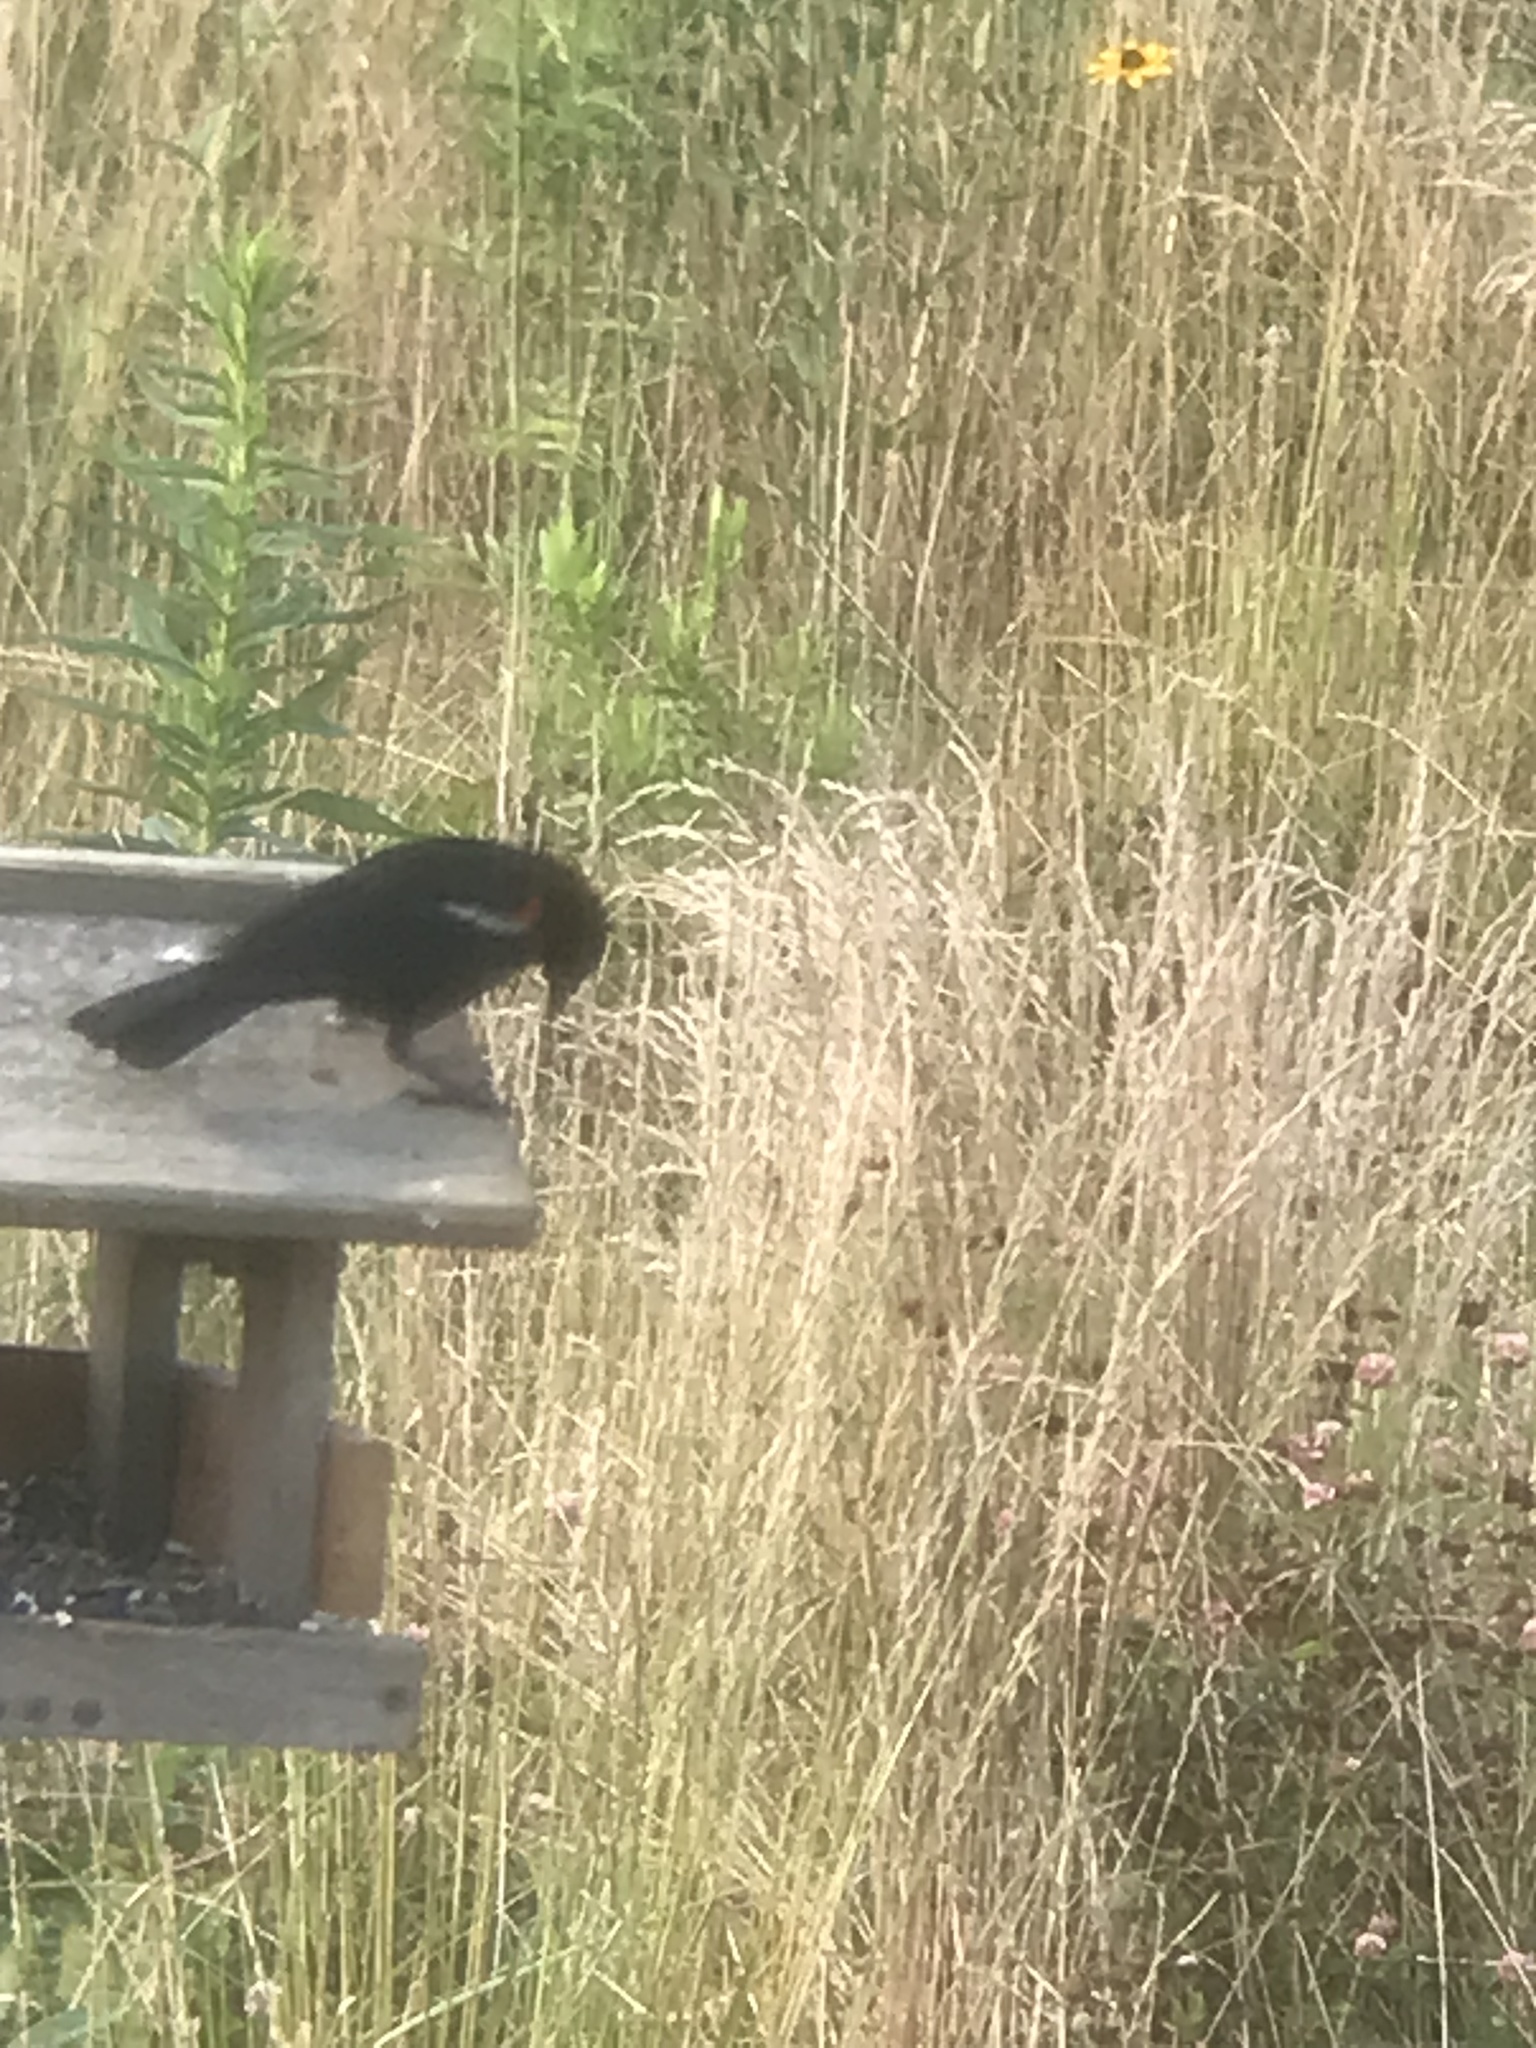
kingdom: Animalia
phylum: Chordata
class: Aves
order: Passeriformes
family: Icteridae
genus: Agelaius
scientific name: Agelaius phoeniceus
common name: Red-winged blackbird
